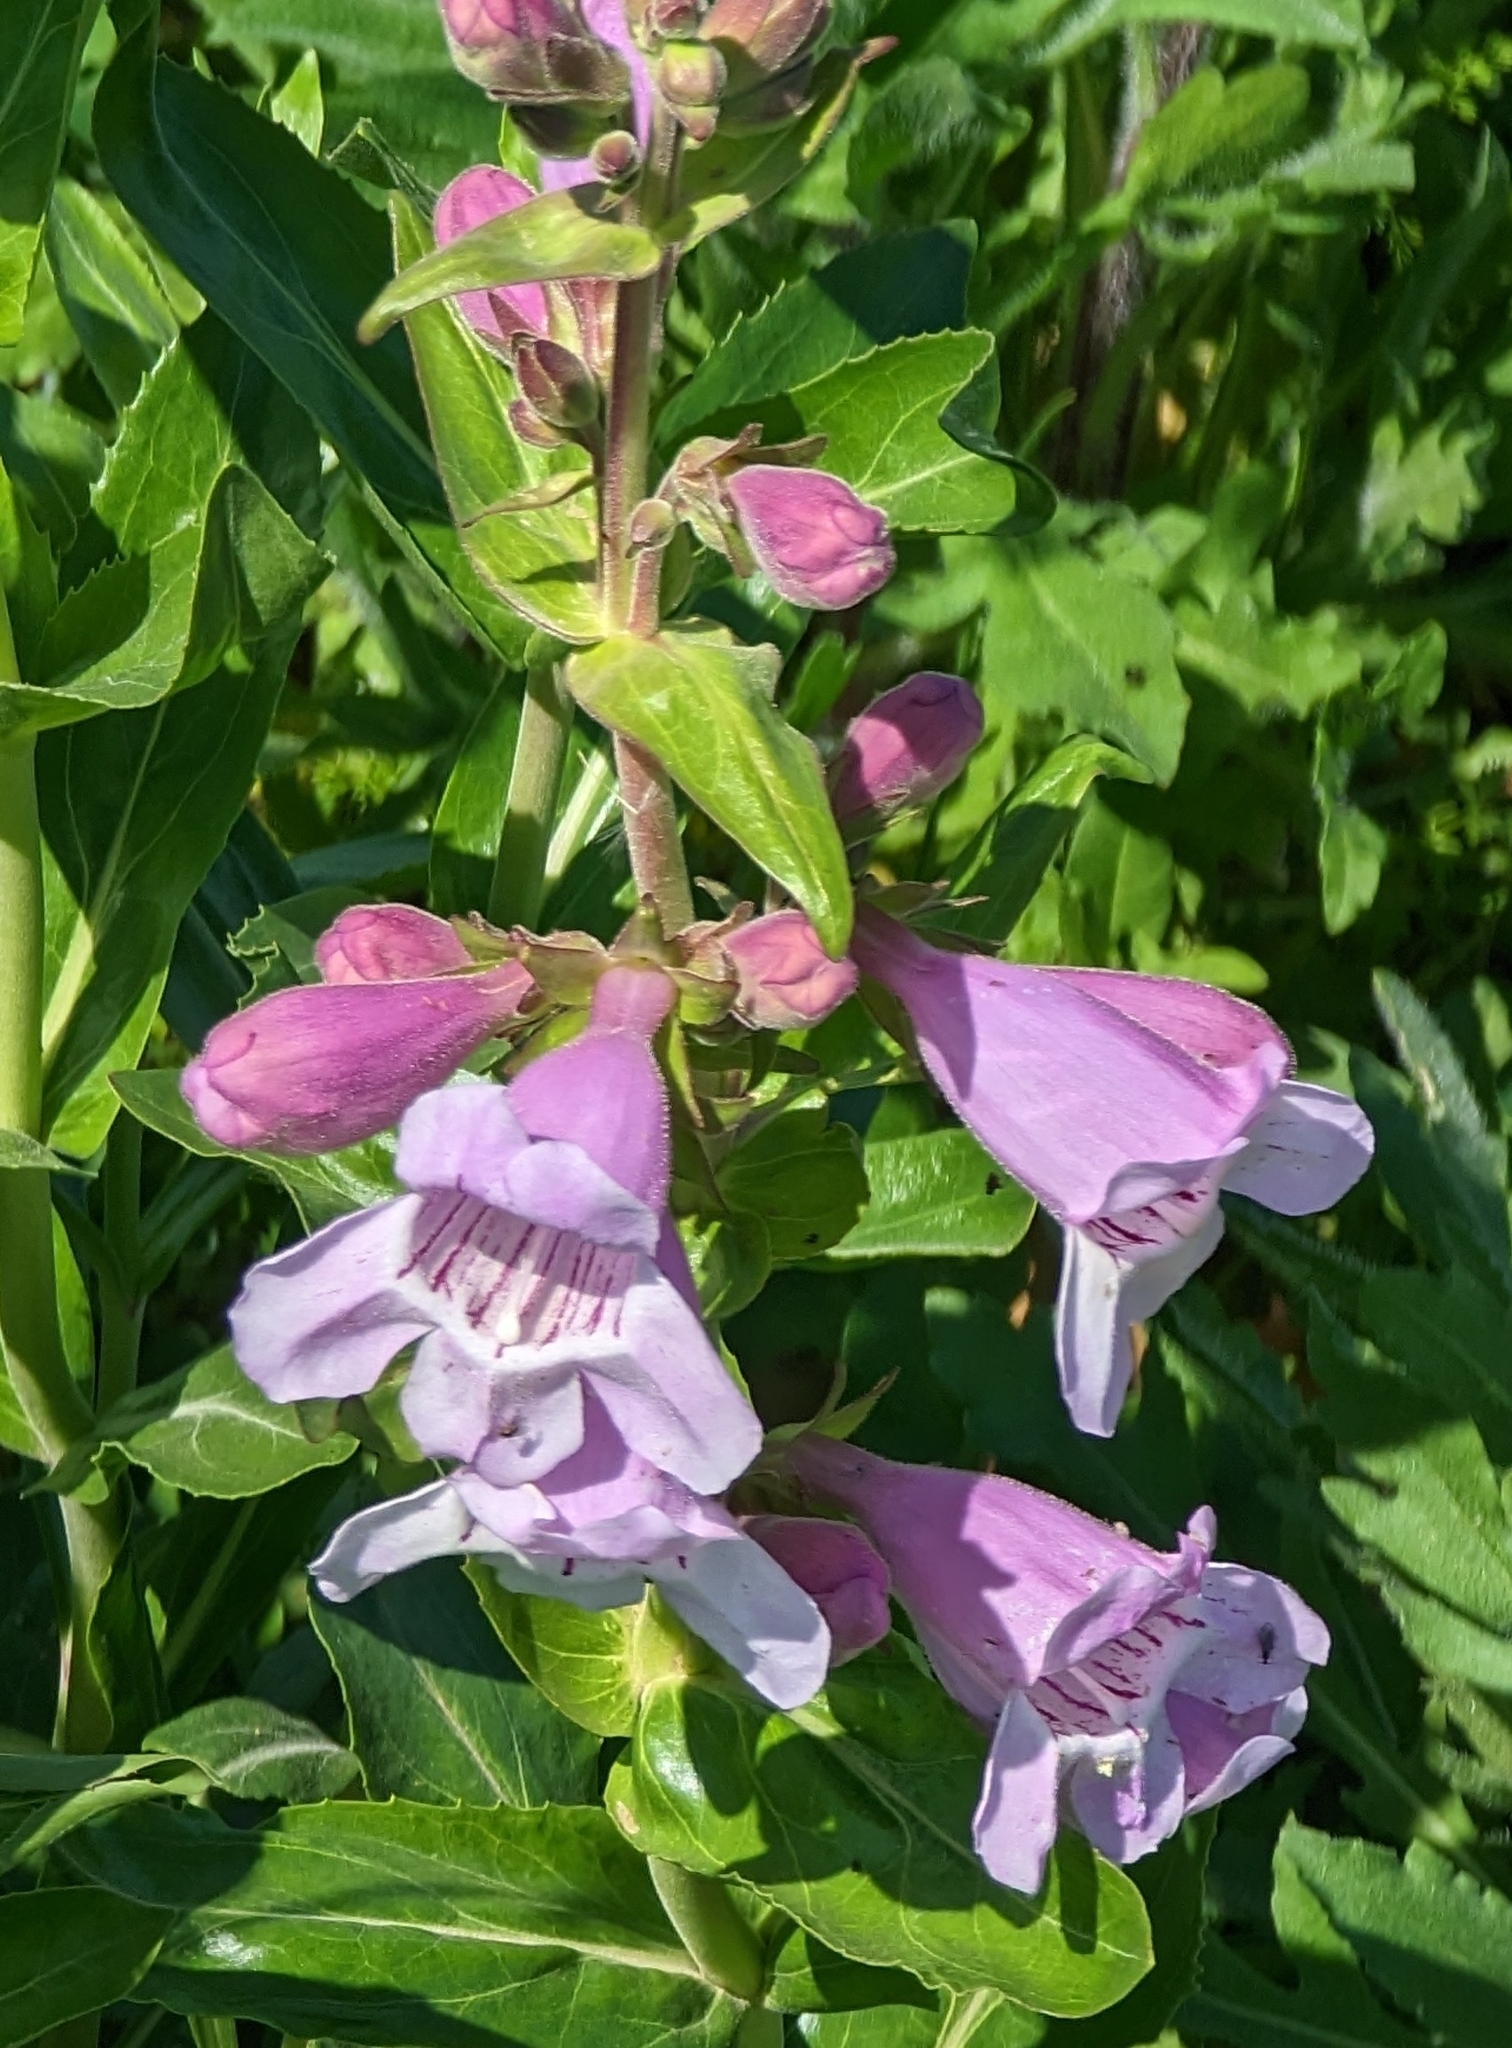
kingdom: Plantae
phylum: Tracheophyta
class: Magnoliopsida
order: Lamiales
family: Plantaginaceae
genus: Penstemon
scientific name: Penstemon cobaea
